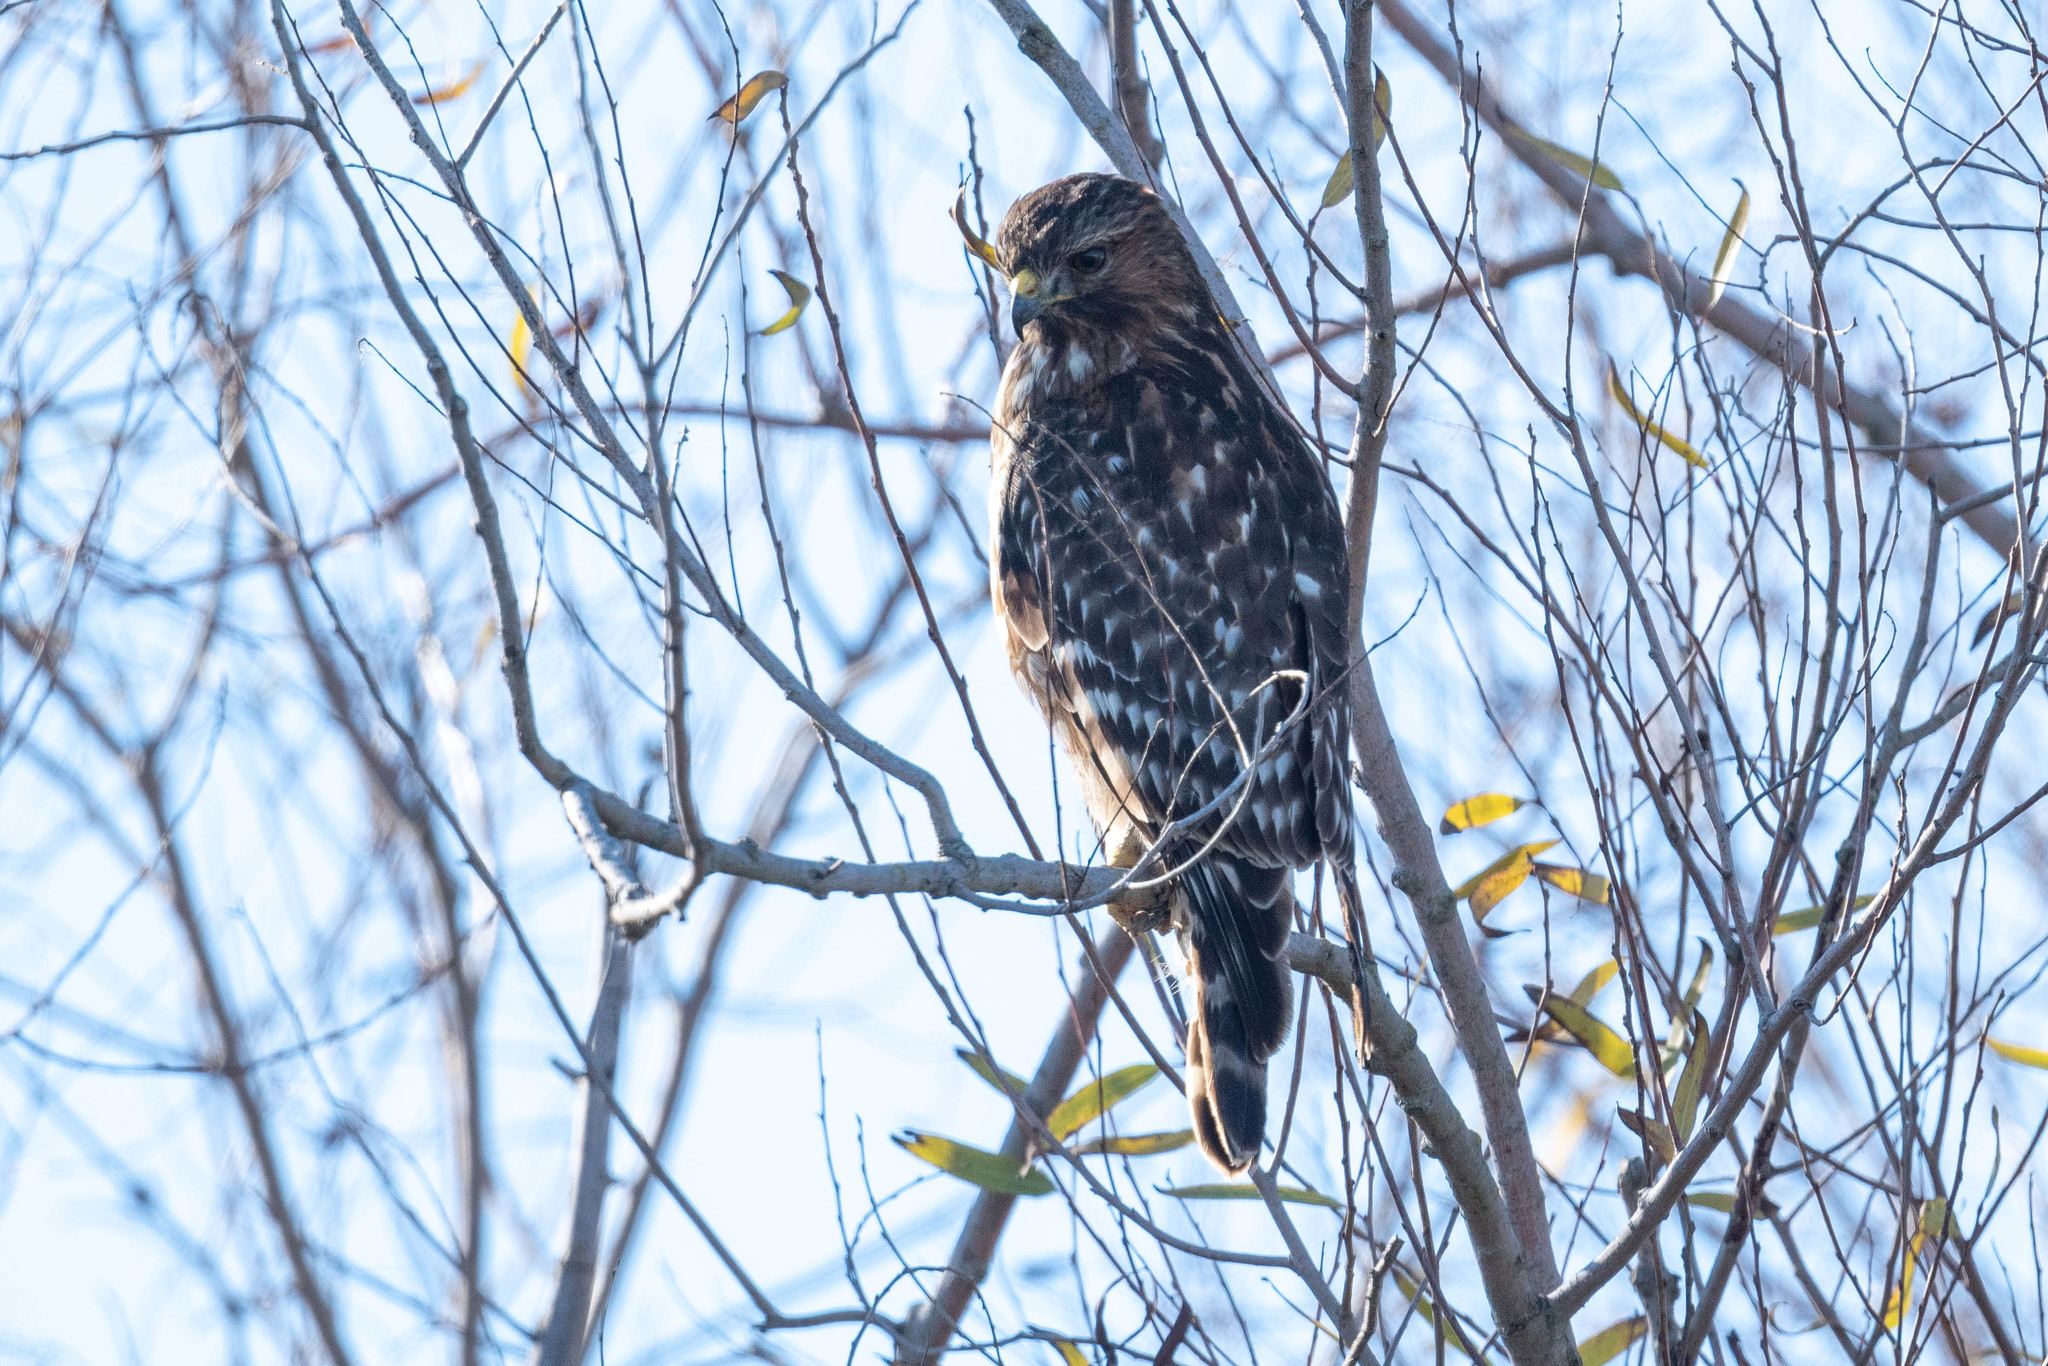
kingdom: Animalia
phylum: Chordata
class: Aves
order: Accipitriformes
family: Accipitridae
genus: Buteo
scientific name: Buteo lineatus
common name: Red-shouldered hawk
